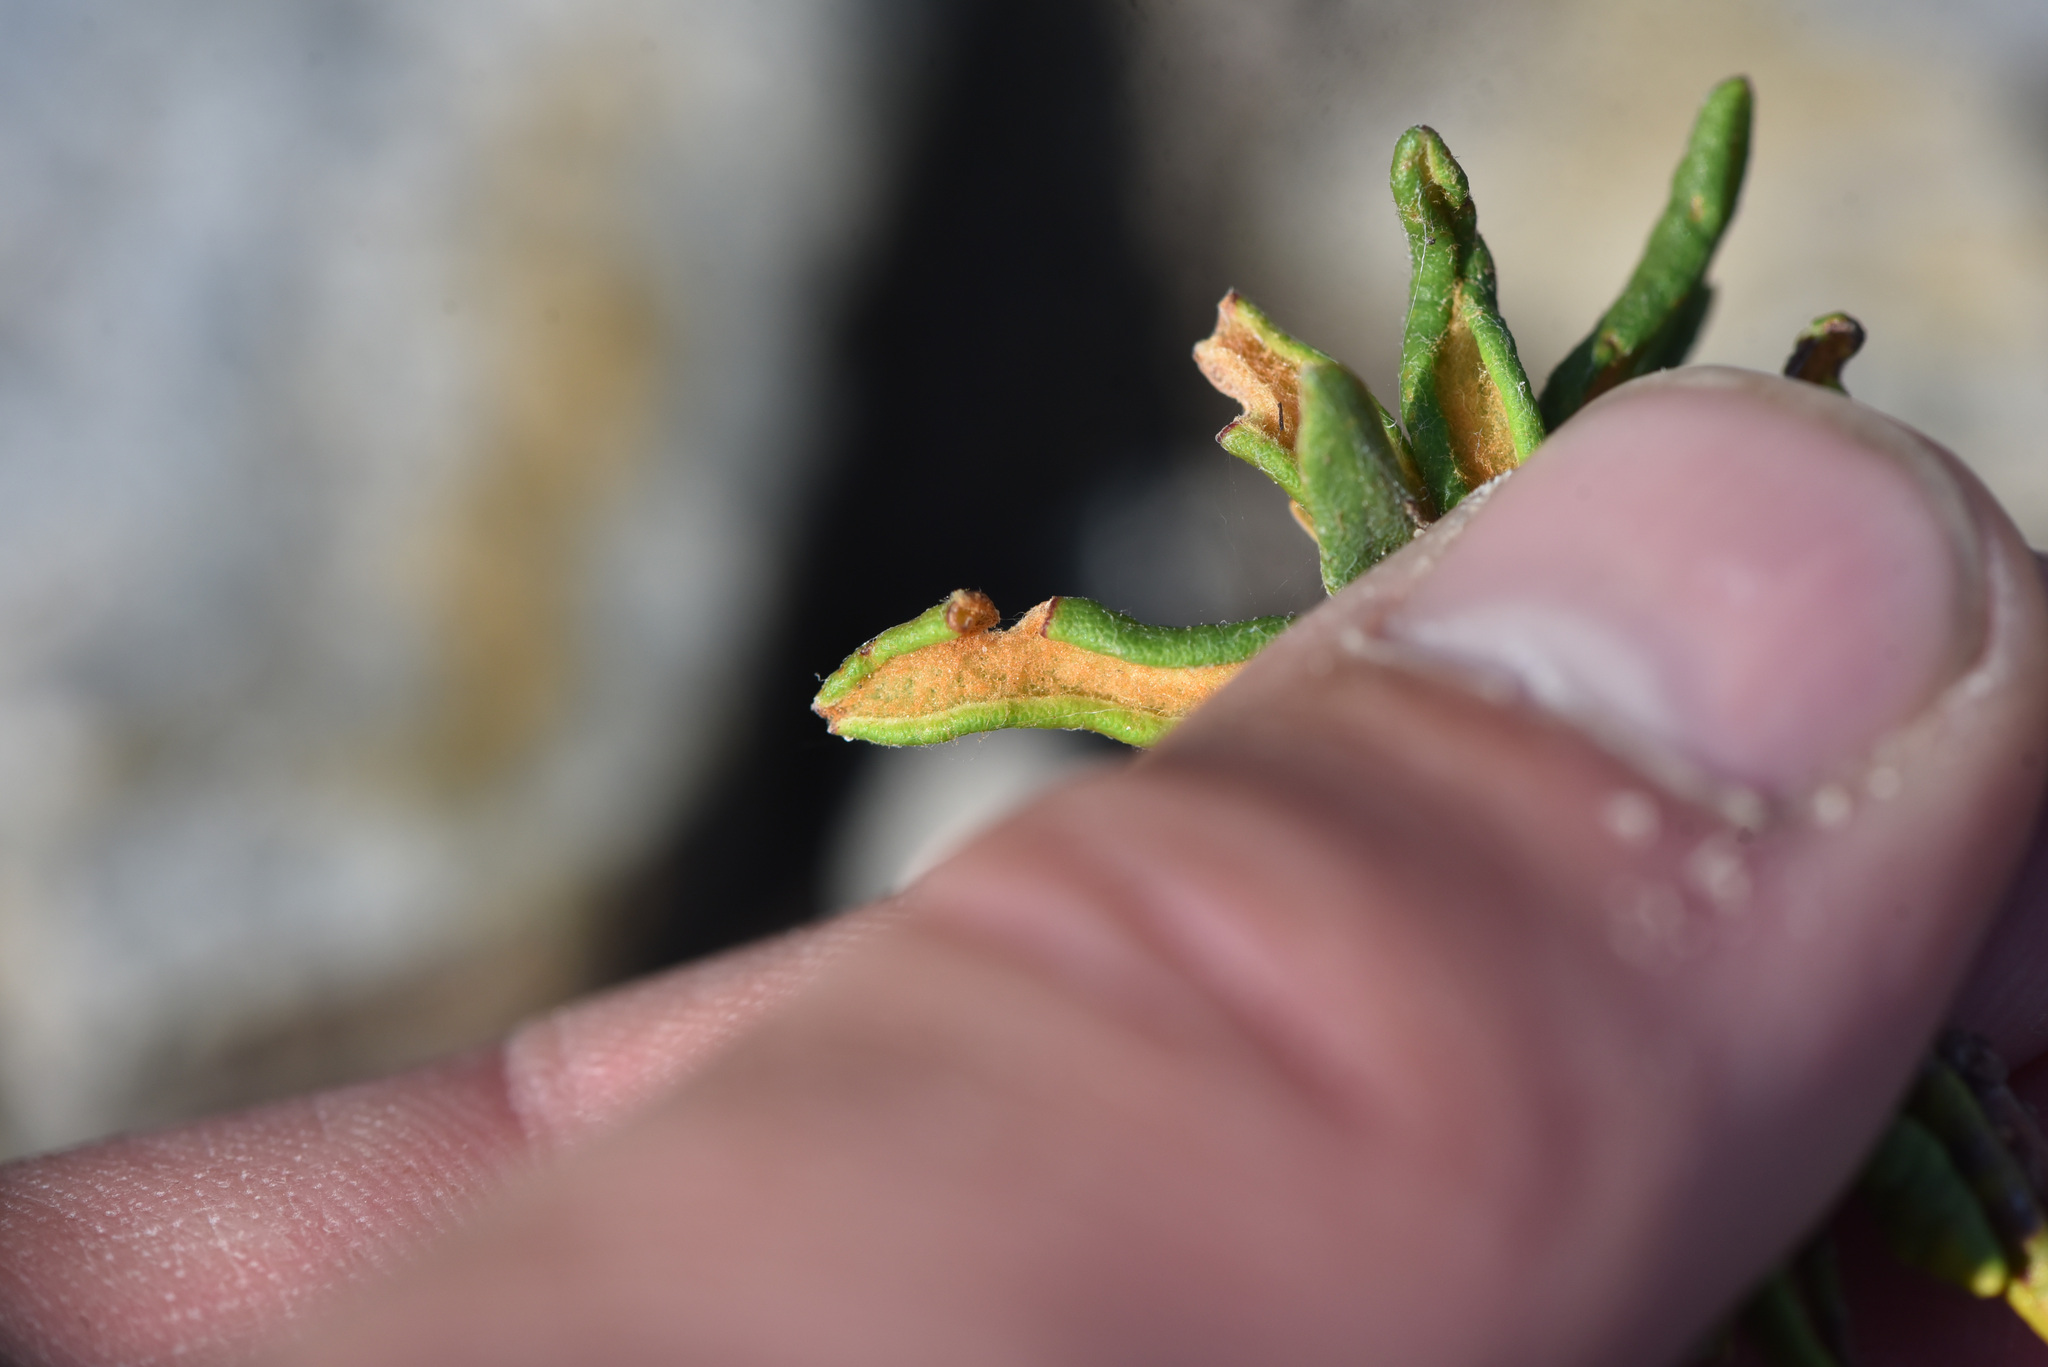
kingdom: Plantae
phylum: Tracheophyta
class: Magnoliopsida
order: Ericales
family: Ericaceae
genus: Rhododendron
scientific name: Rhododendron groenlandicum
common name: Bog labrador tea
